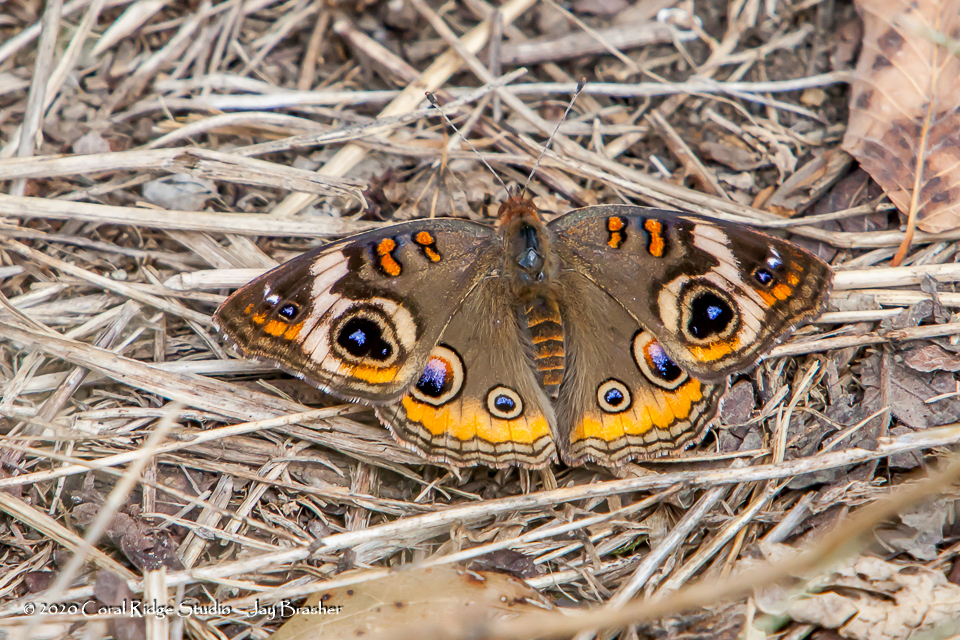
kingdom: Animalia
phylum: Arthropoda
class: Insecta
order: Lepidoptera
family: Nymphalidae
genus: Junonia
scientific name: Junonia coenia
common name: Common buckeye
